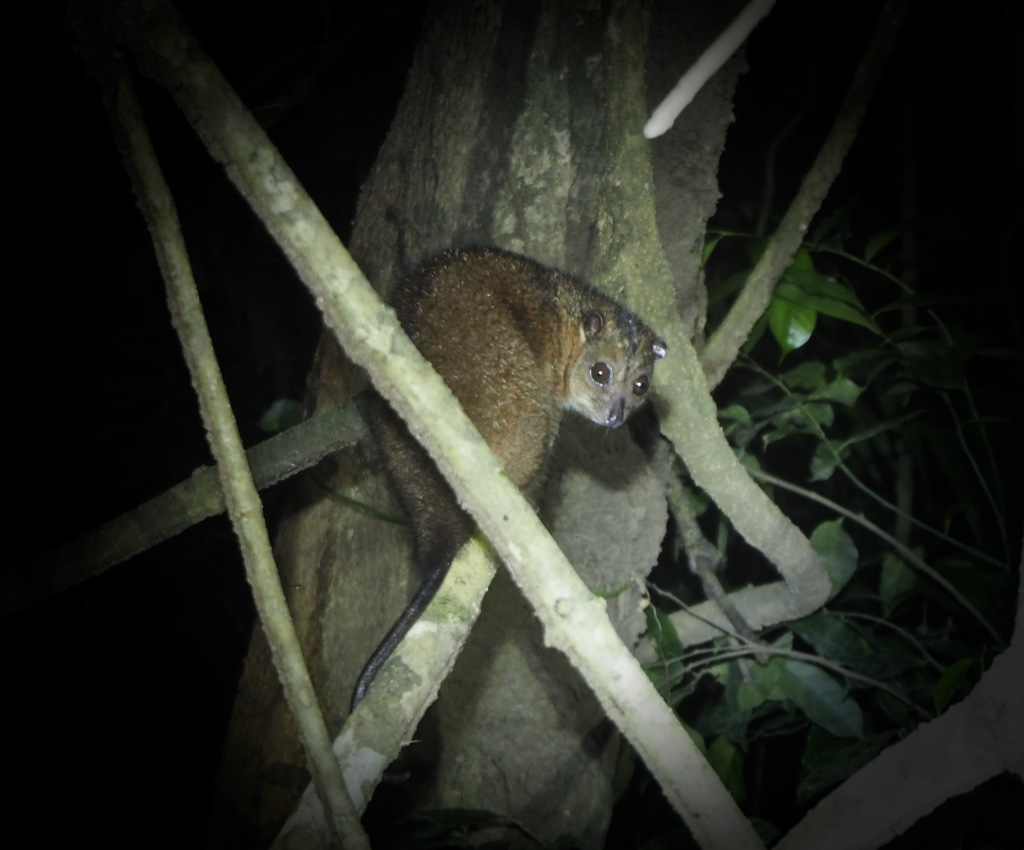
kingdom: Animalia
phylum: Chordata
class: Mammalia
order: Diprotodontia
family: Phalangeridae
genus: Phalanger
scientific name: Phalanger mimicus
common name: Southern common cuscus
